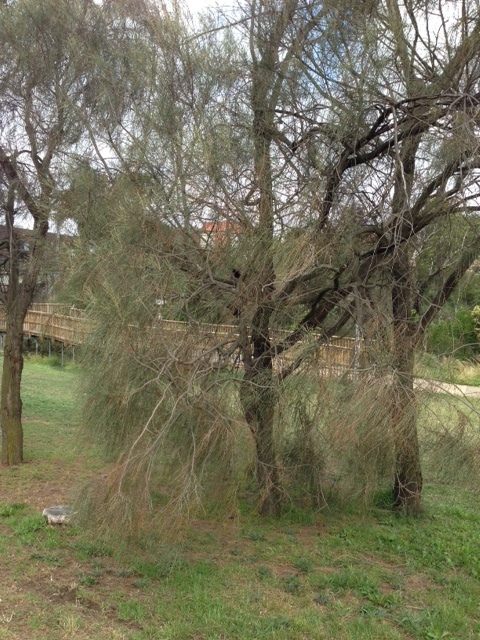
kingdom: Plantae
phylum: Tracheophyta
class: Magnoliopsida
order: Fagales
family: Casuarinaceae
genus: Allocasuarina
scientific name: Allocasuarina verticillata
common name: Drooping she-oak
